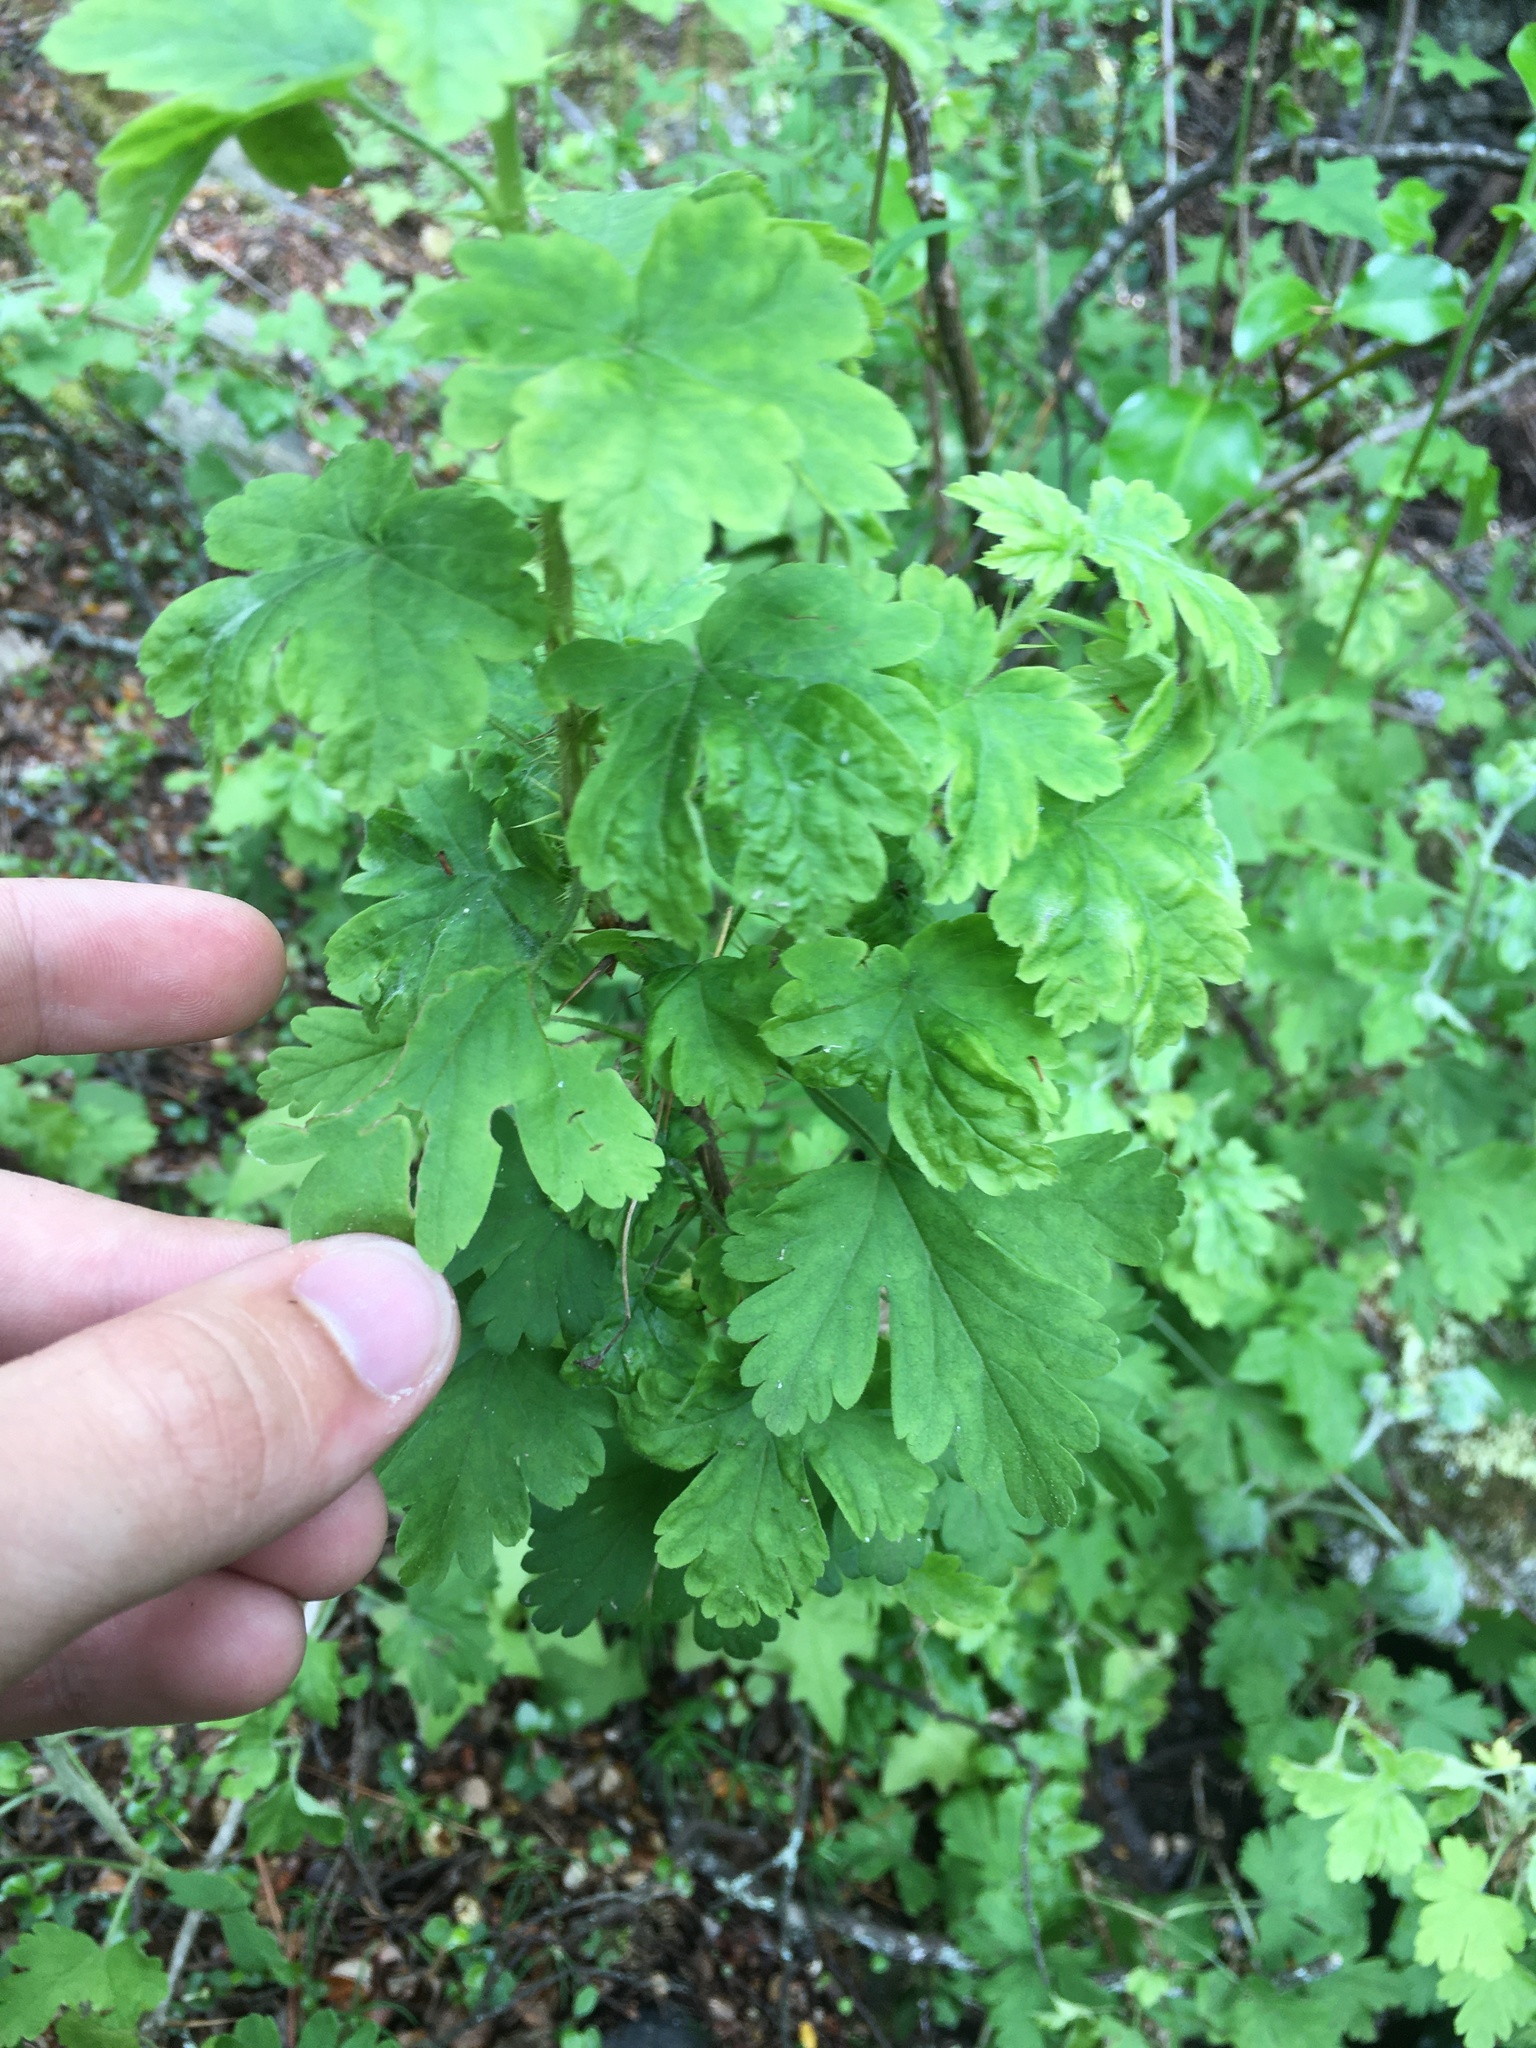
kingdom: Plantae
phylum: Tracheophyta
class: Magnoliopsida
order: Saxifragales
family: Grossulariaceae
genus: Ribes
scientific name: Ribes uva-crispa
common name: Gooseberry
